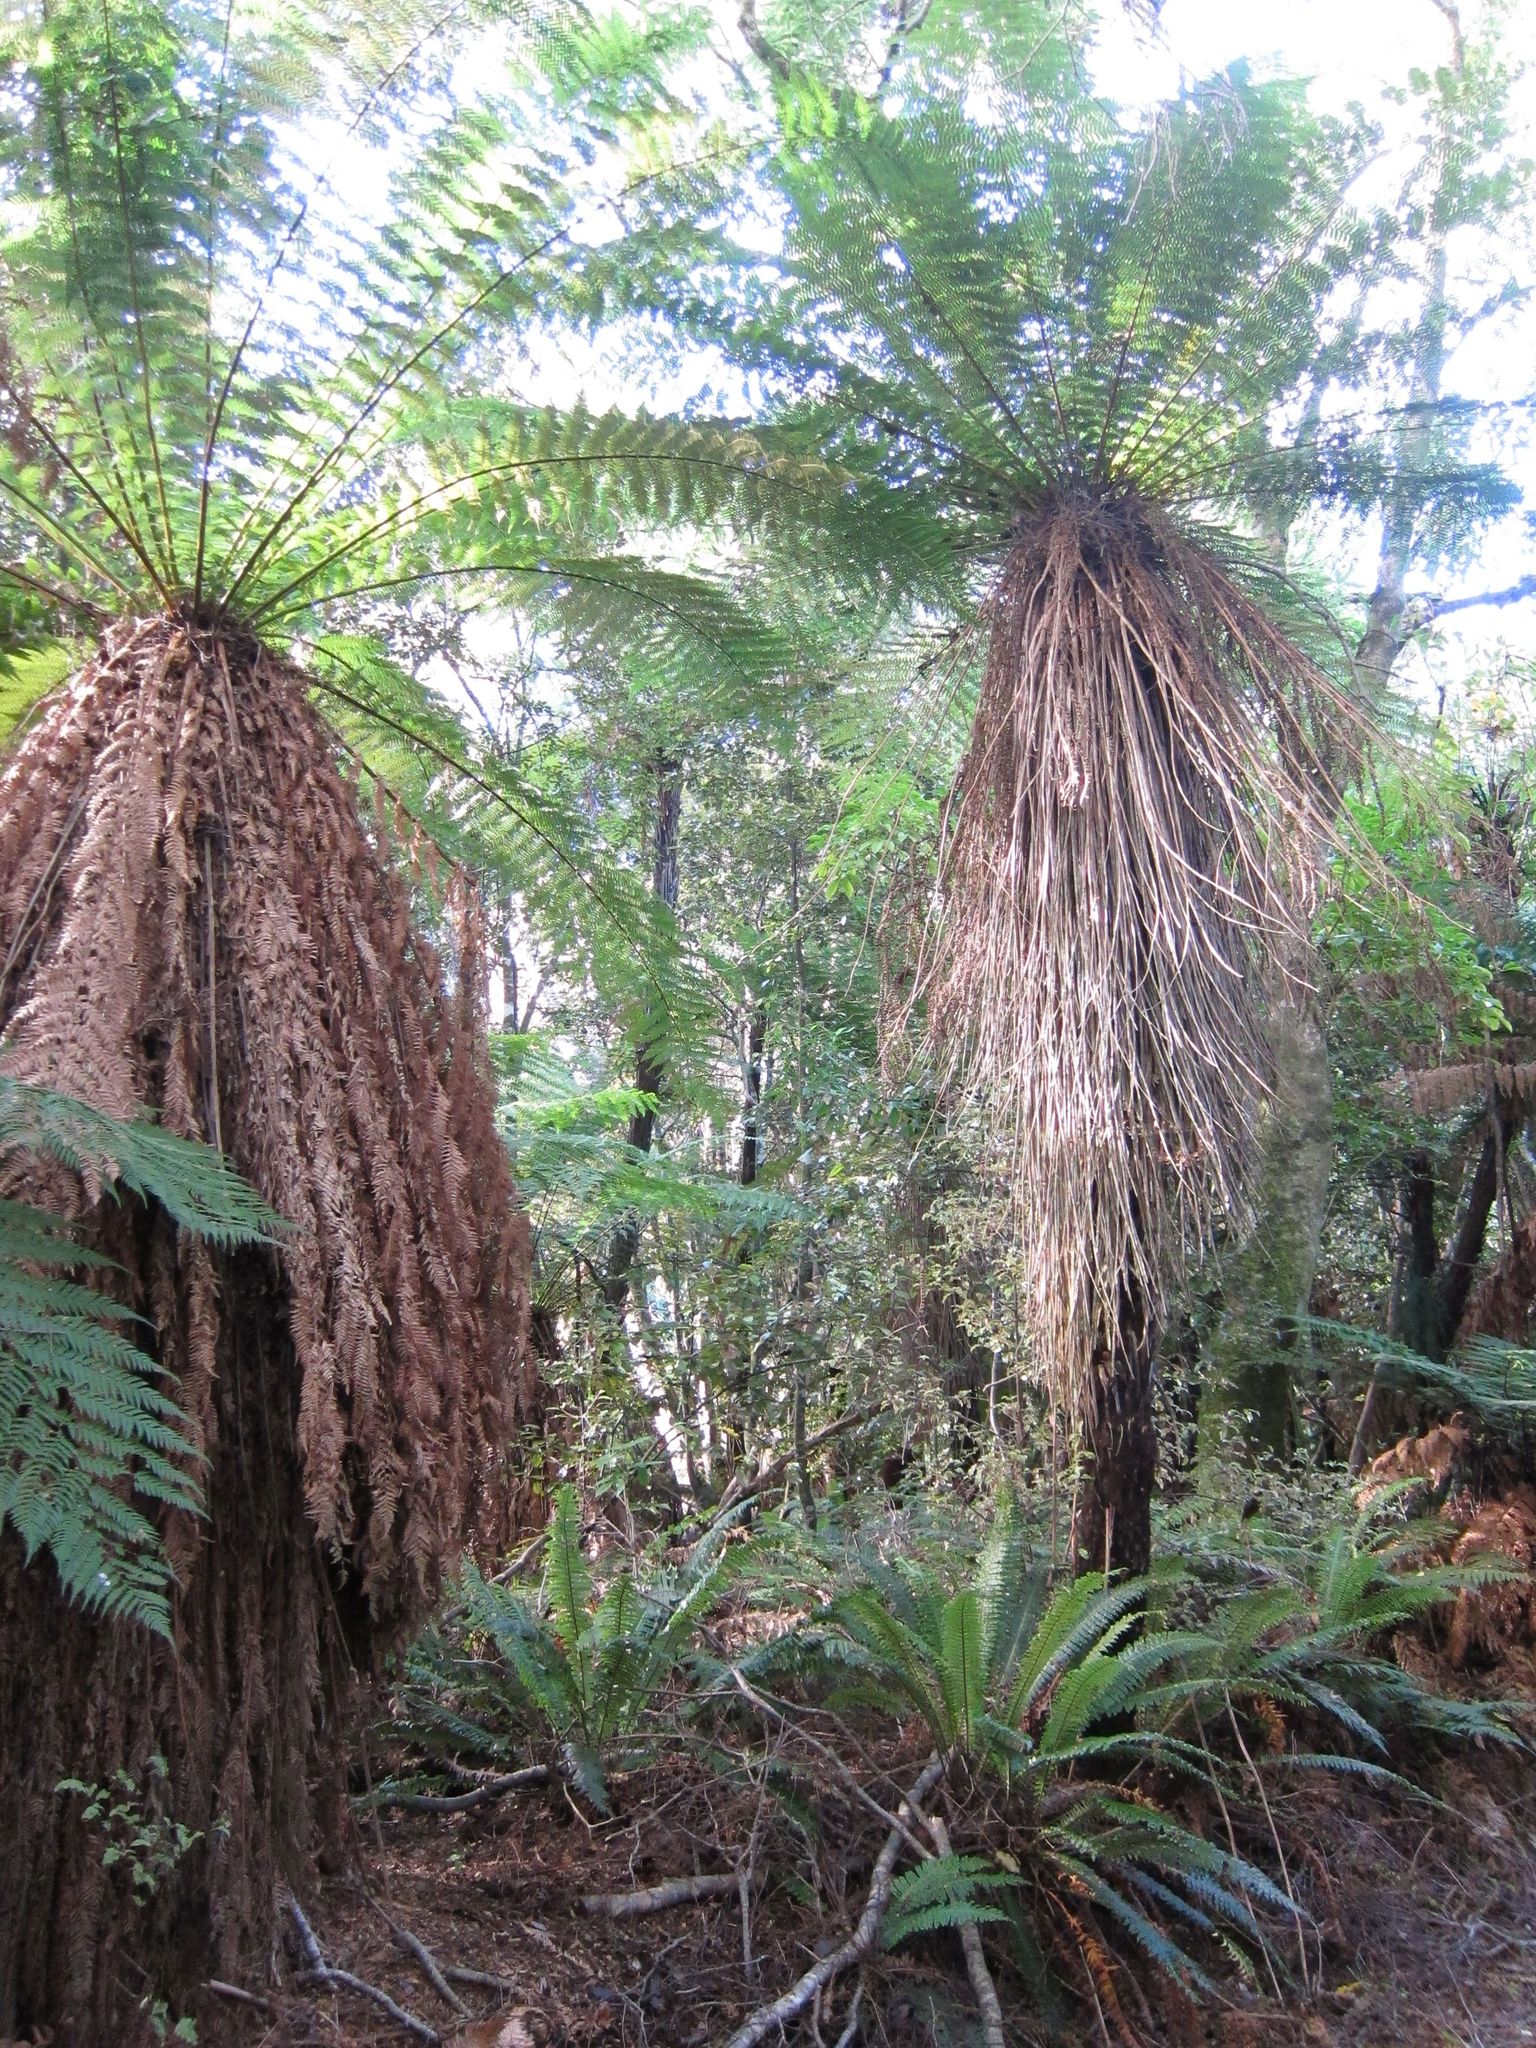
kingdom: Plantae
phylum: Tracheophyta
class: Polypodiopsida
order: Cyatheales
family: Cyatheaceae
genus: Alsophila
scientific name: Alsophila smithii
